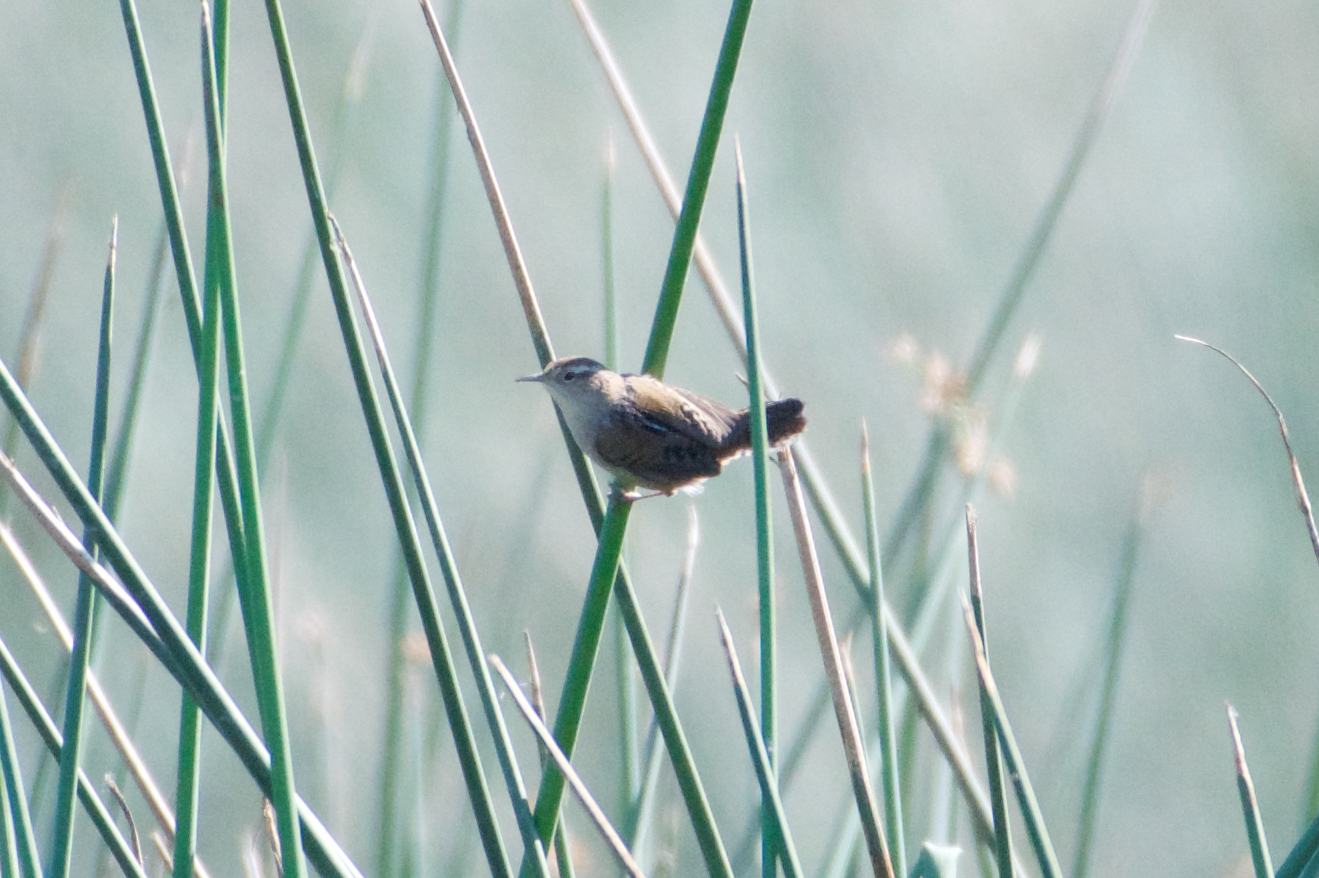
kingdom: Animalia
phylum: Chordata
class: Aves
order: Passeriformes
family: Troglodytidae
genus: Cistothorus
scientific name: Cistothorus palustris
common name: Marsh wren
